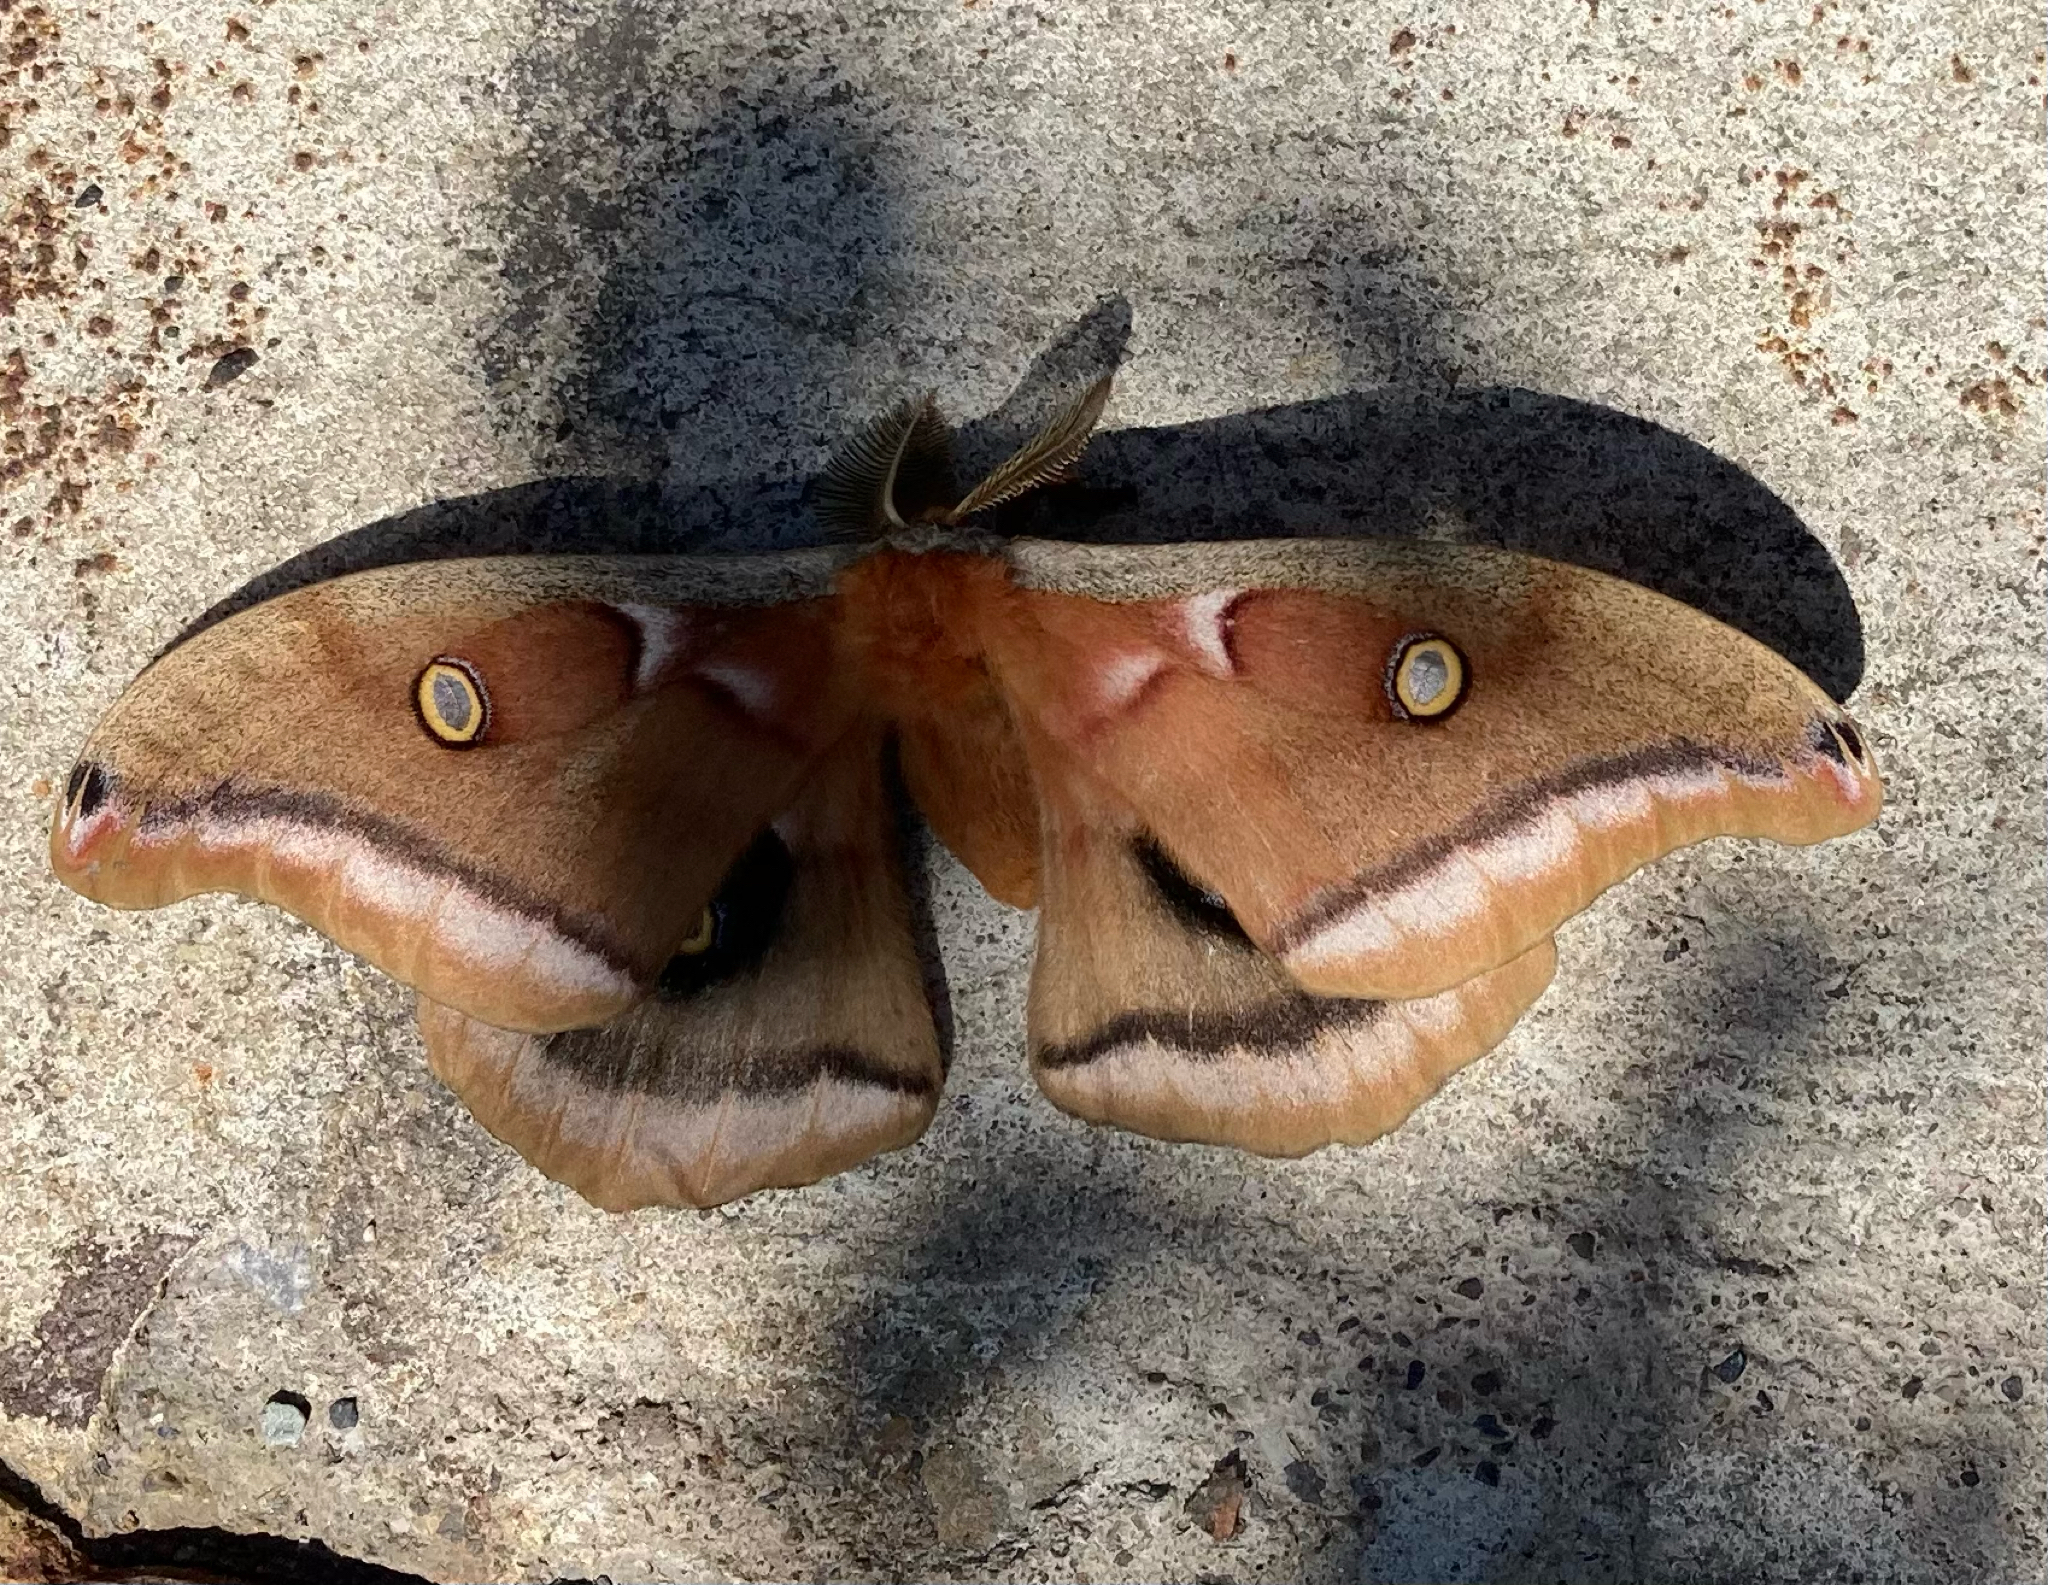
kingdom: Animalia
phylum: Arthropoda
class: Insecta
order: Lepidoptera
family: Saturniidae
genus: Antheraea
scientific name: Antheraea polyphemus
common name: Polyphemus moth
